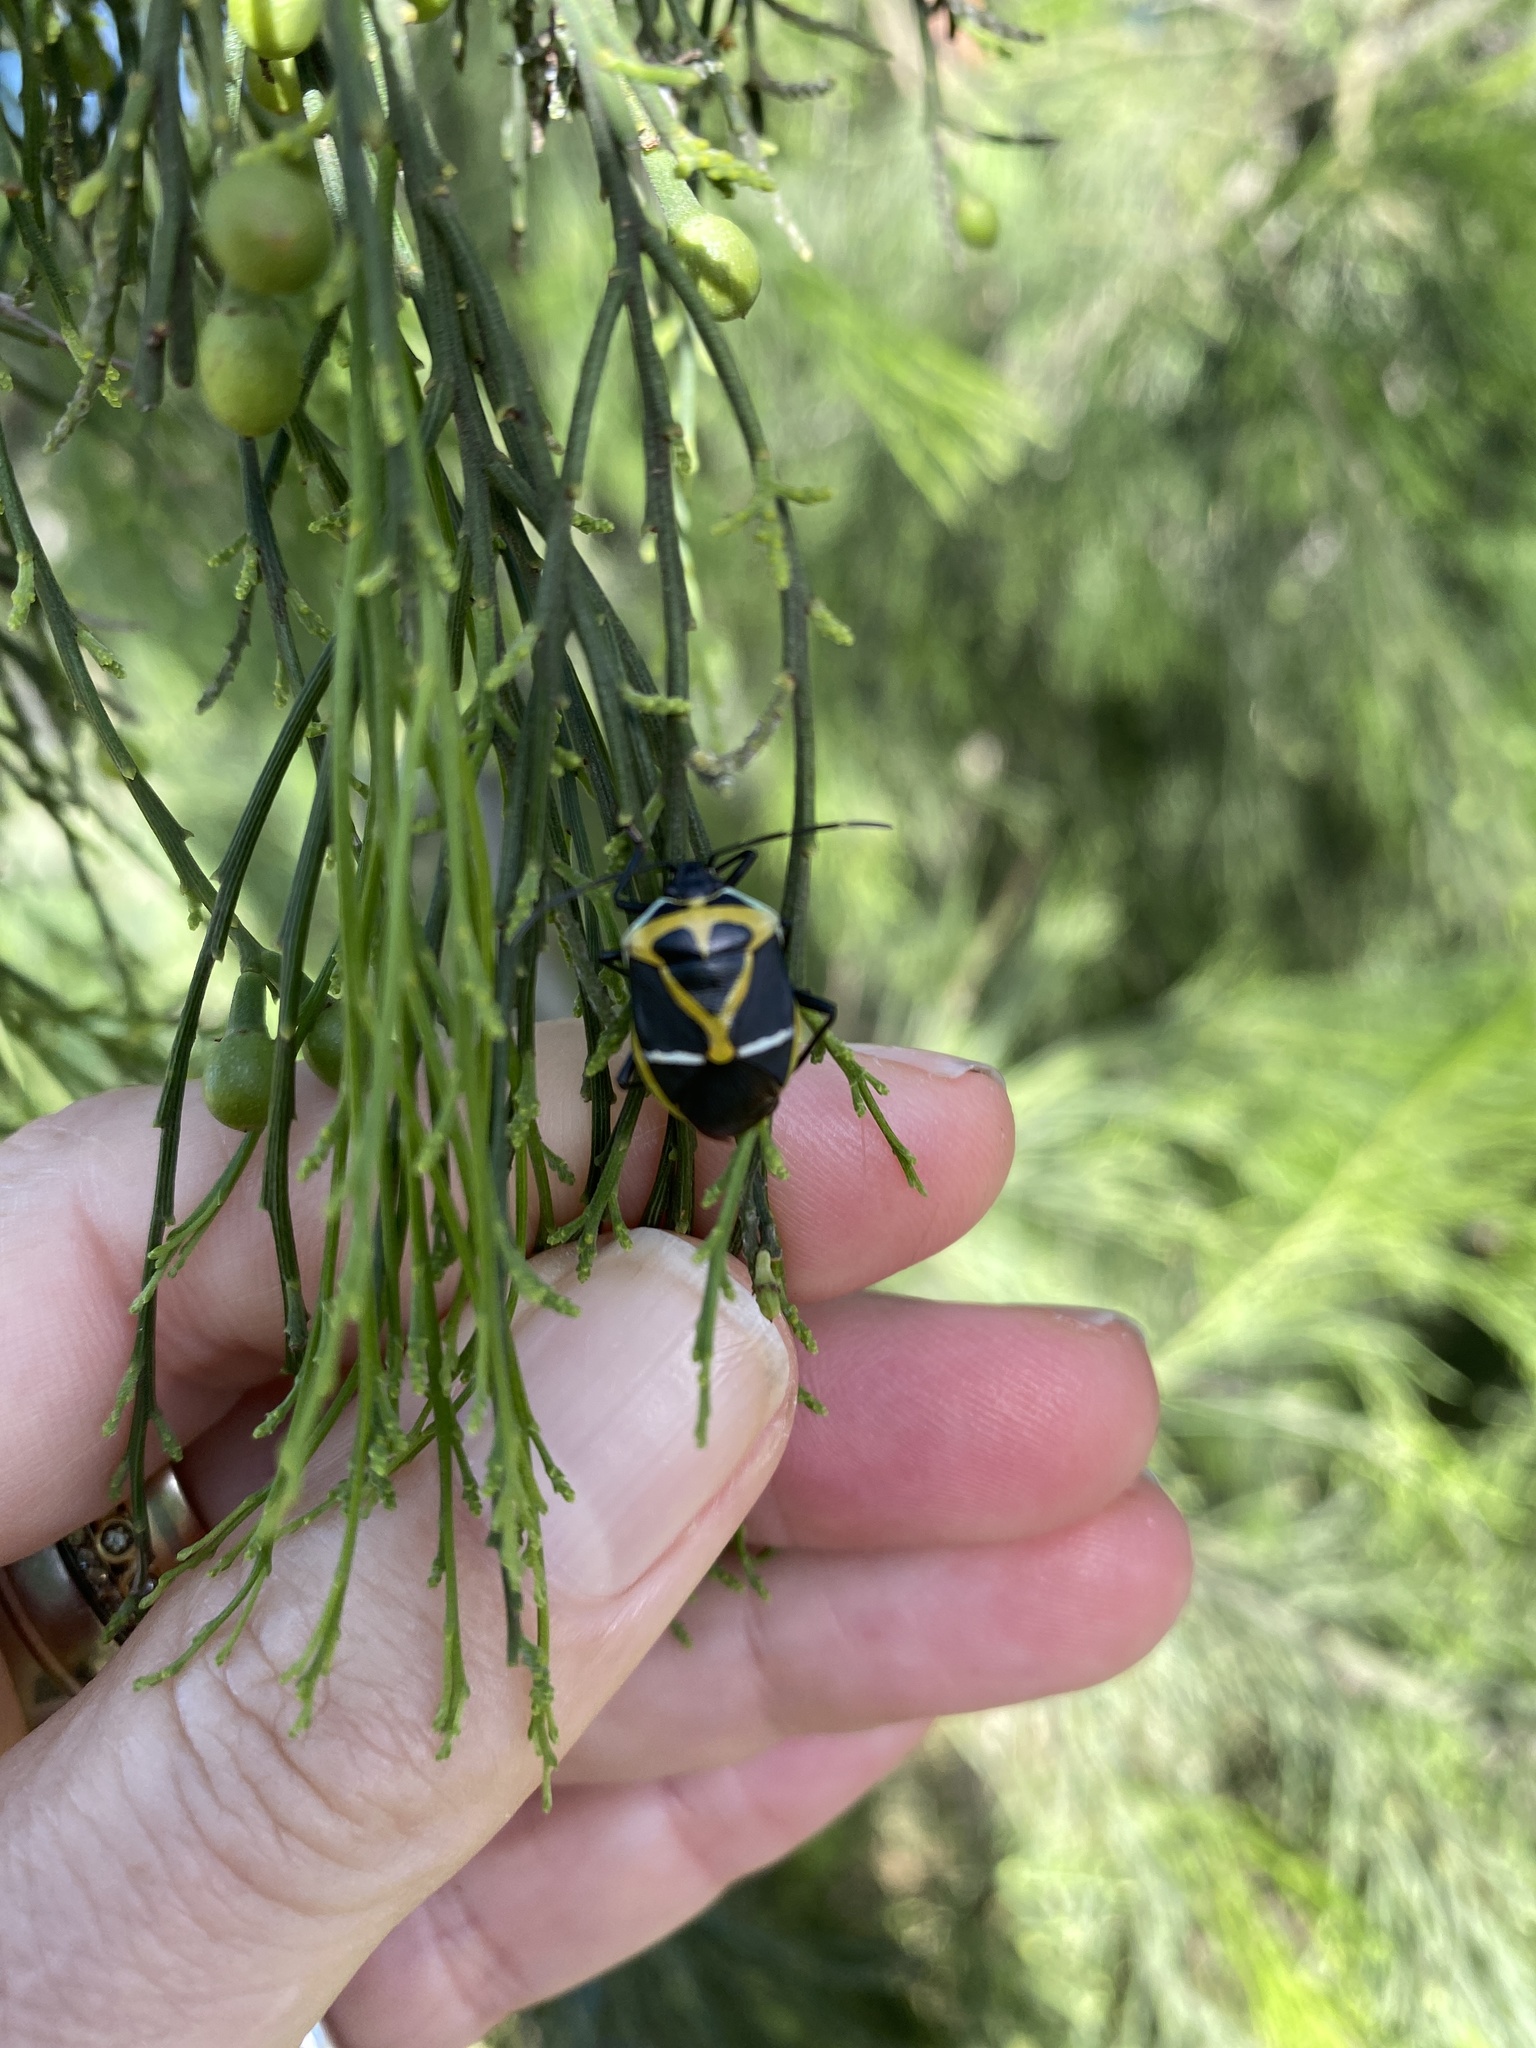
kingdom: Animalia
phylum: Arthropoda
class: Insecta
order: Hemiptera
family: Pentatomidae
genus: Commius
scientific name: Commius
